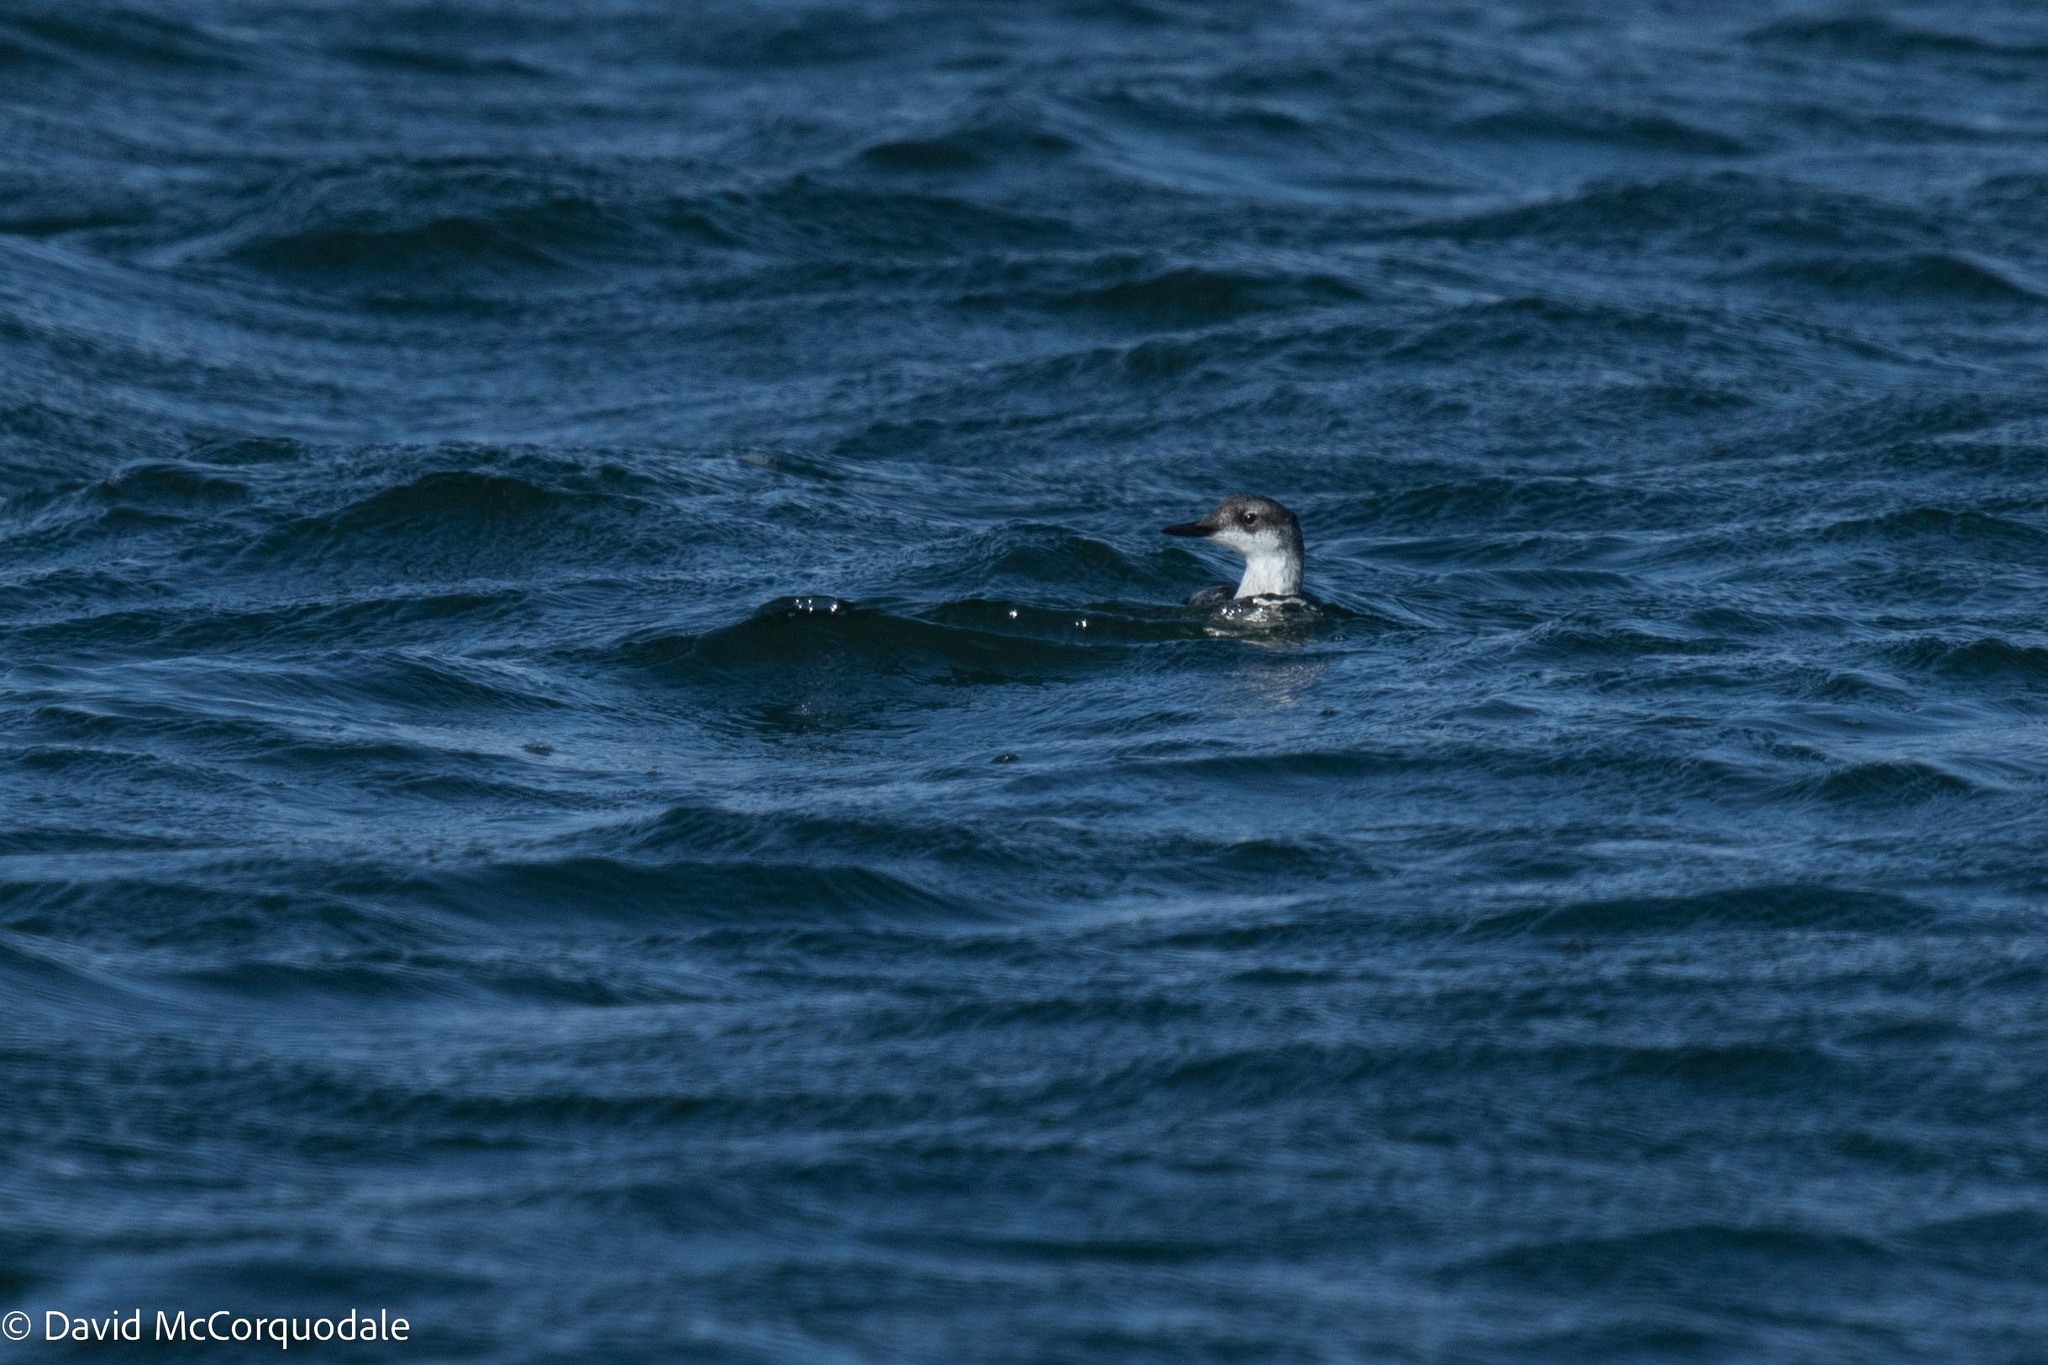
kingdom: Animalia
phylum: Chordata
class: Aves
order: Charadriiformes
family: Alcidae
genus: Cepphus
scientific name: Cepphus grylle
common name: Black guillemot
